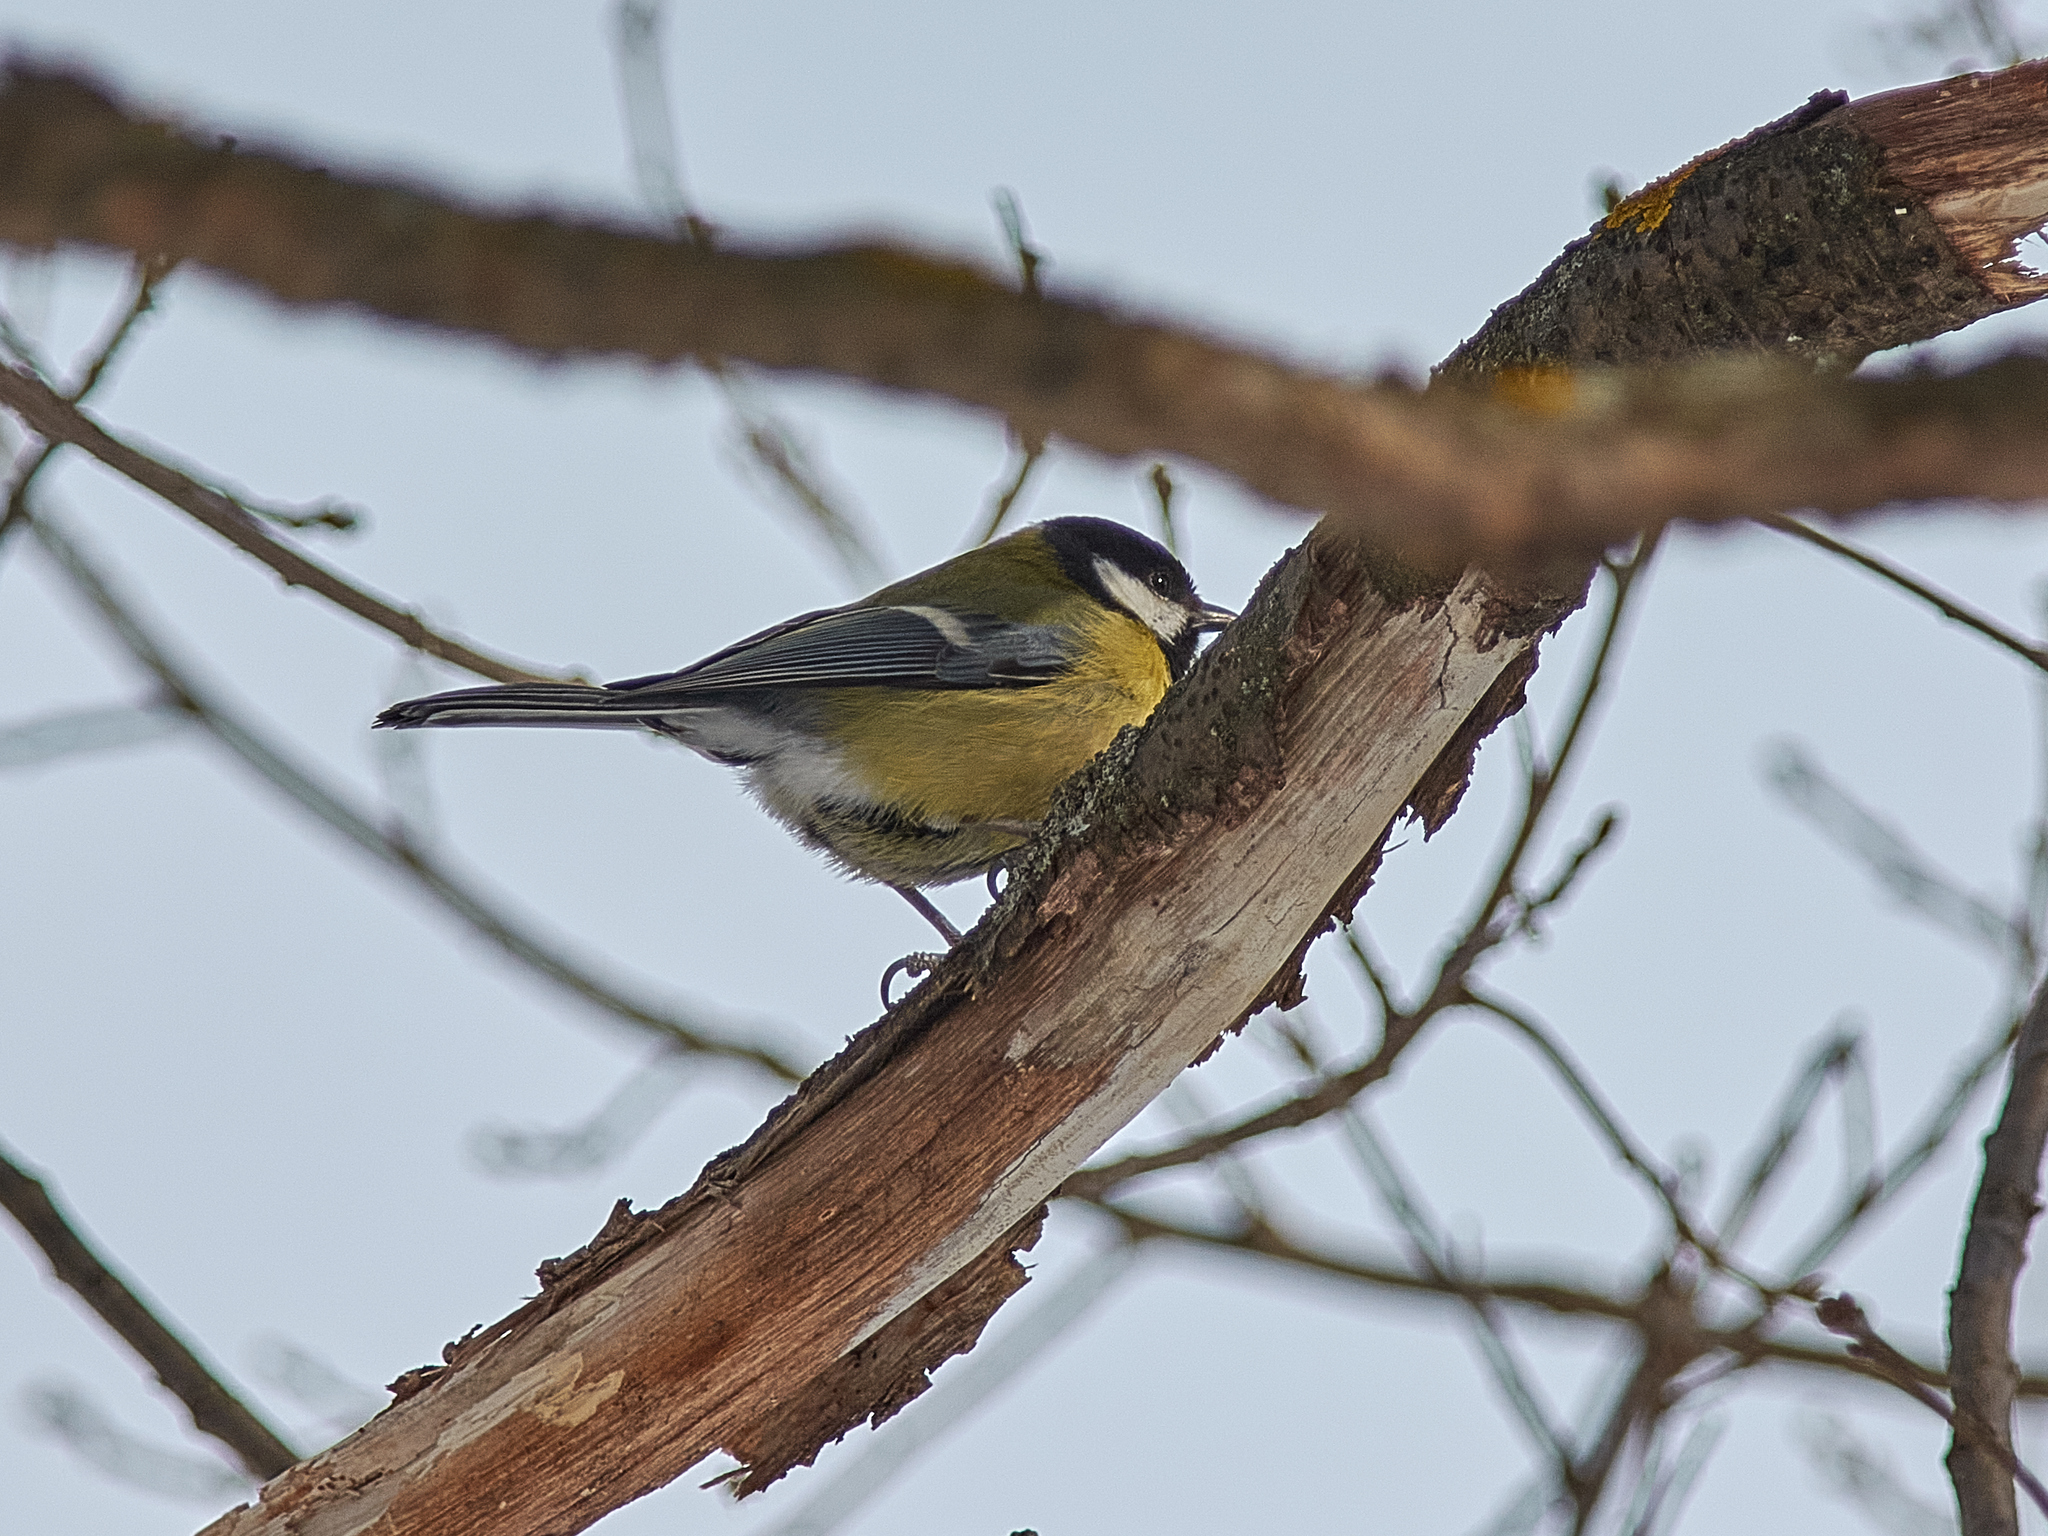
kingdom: Animalia
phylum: Chordata
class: Aves
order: Passeriformes
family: Paridae
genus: Parus
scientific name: Parus major
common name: Great tit
